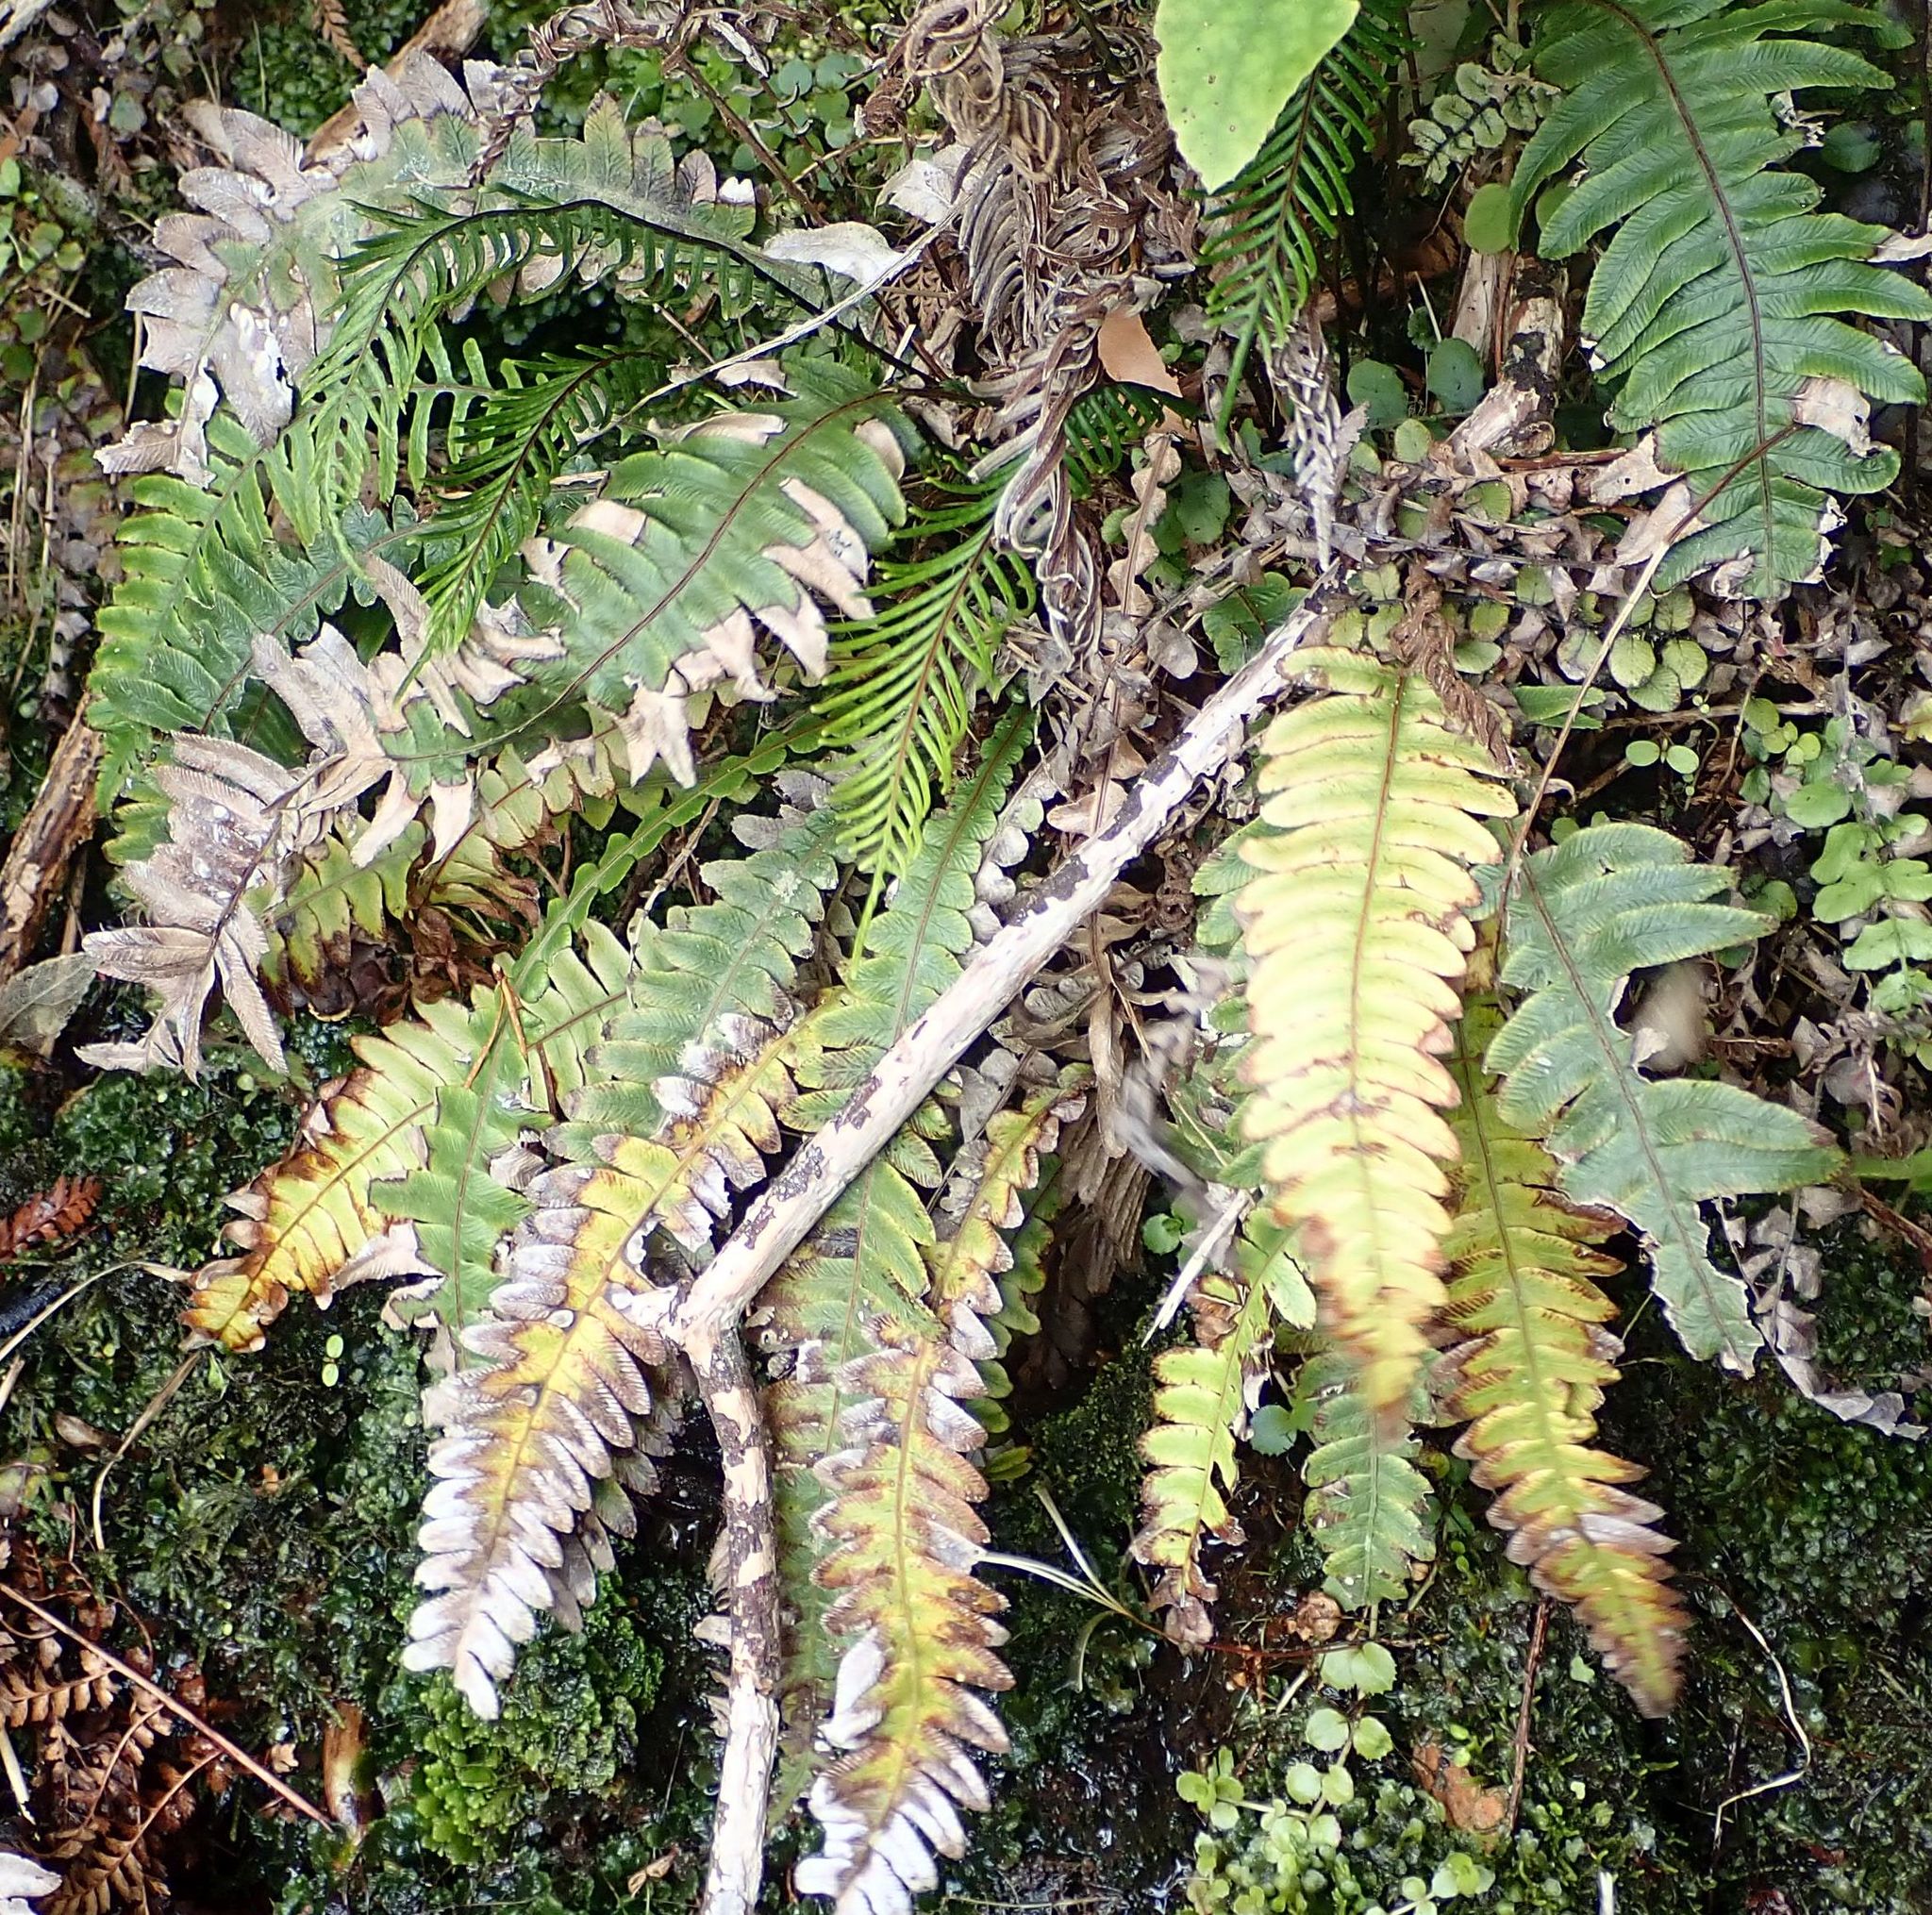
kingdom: Plantae
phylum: Tracheophyta
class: Polypodiopsida
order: Polypodiales
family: Blechnaceae
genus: Austroblechnum
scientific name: Austroblechnum lanceolatum
